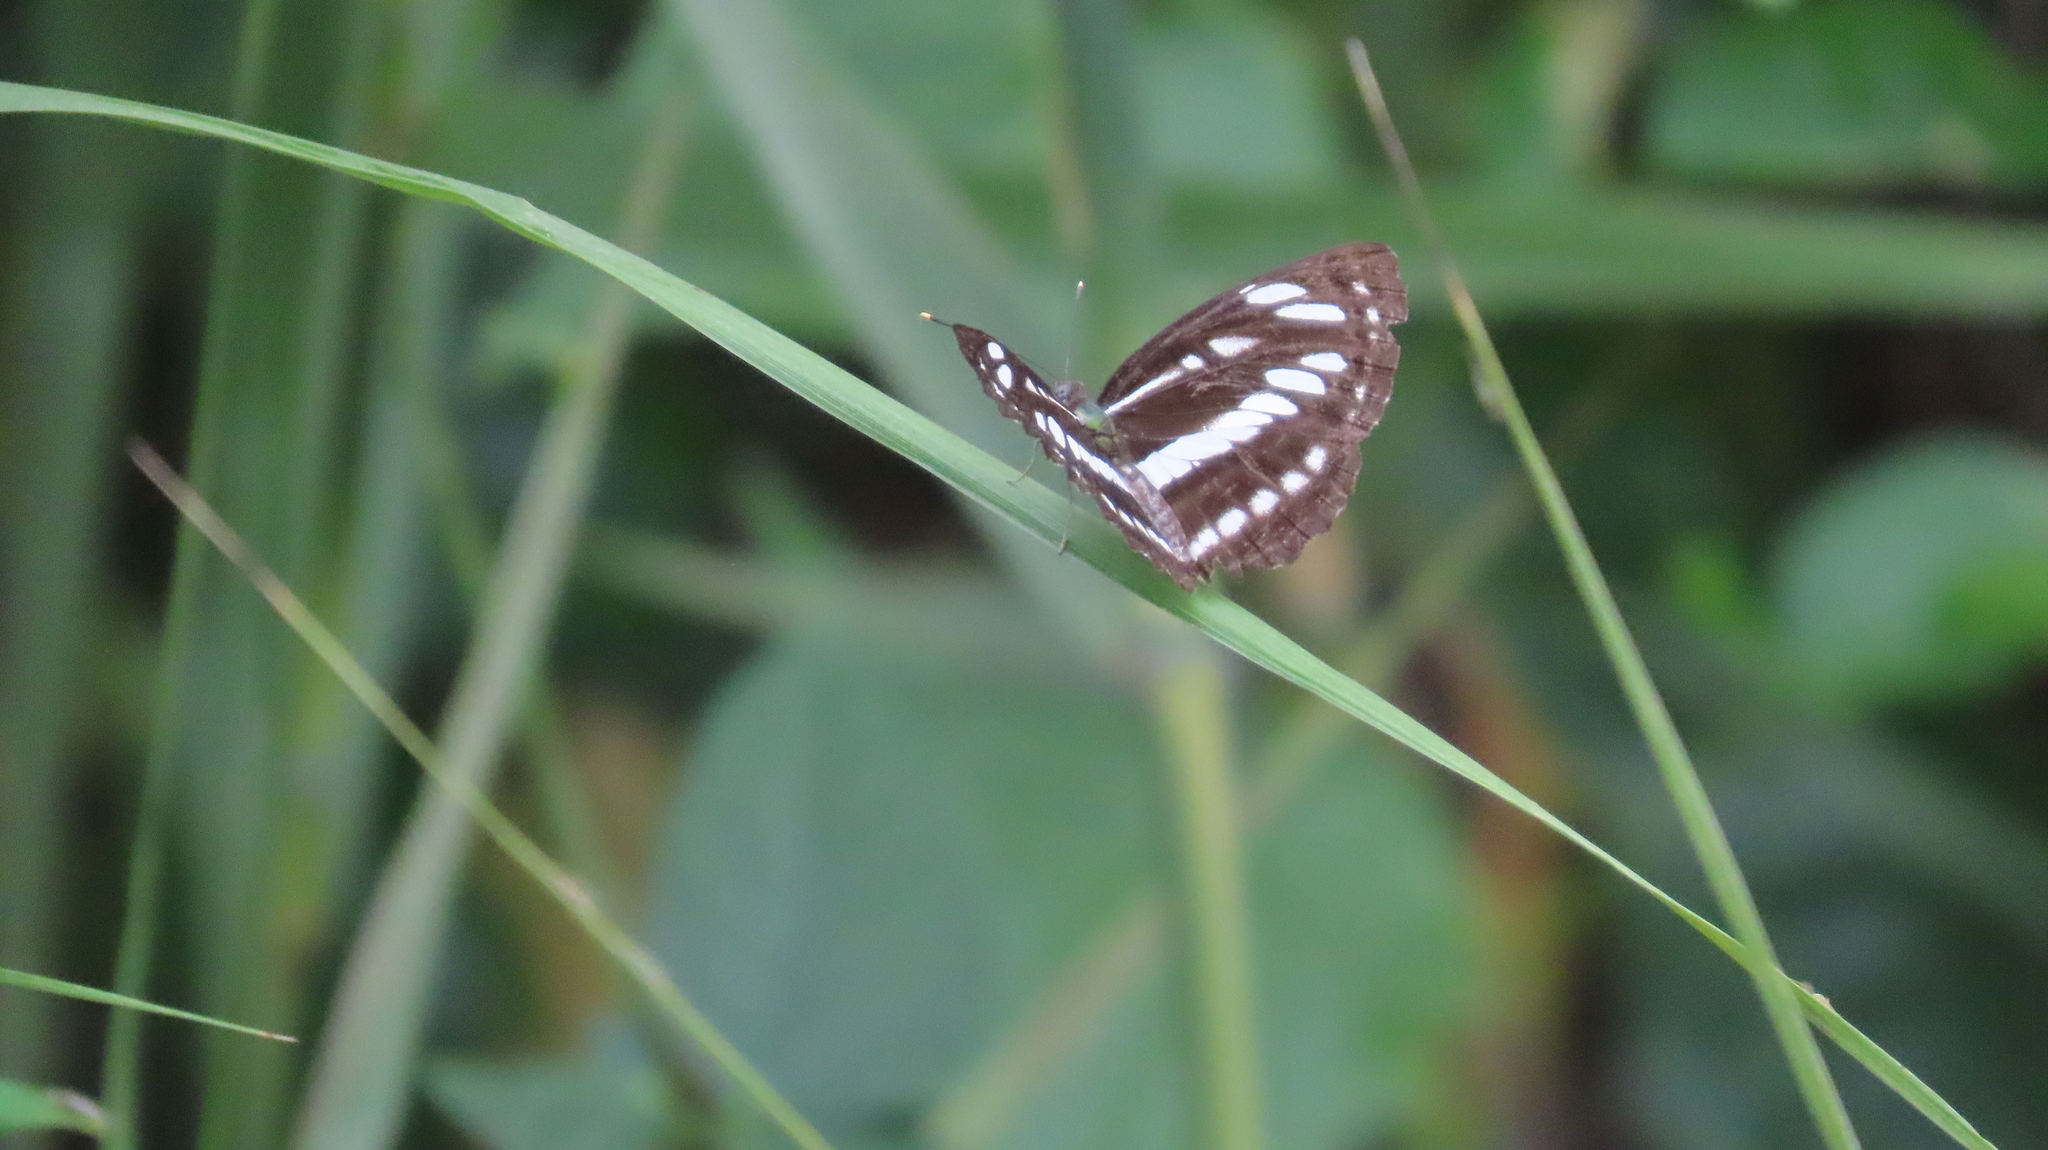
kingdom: Animalia
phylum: Arthropoda
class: Insecta
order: Lepidoptera
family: Nymphalidae
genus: Neptis
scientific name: Neptis hylas
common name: Common sailer
